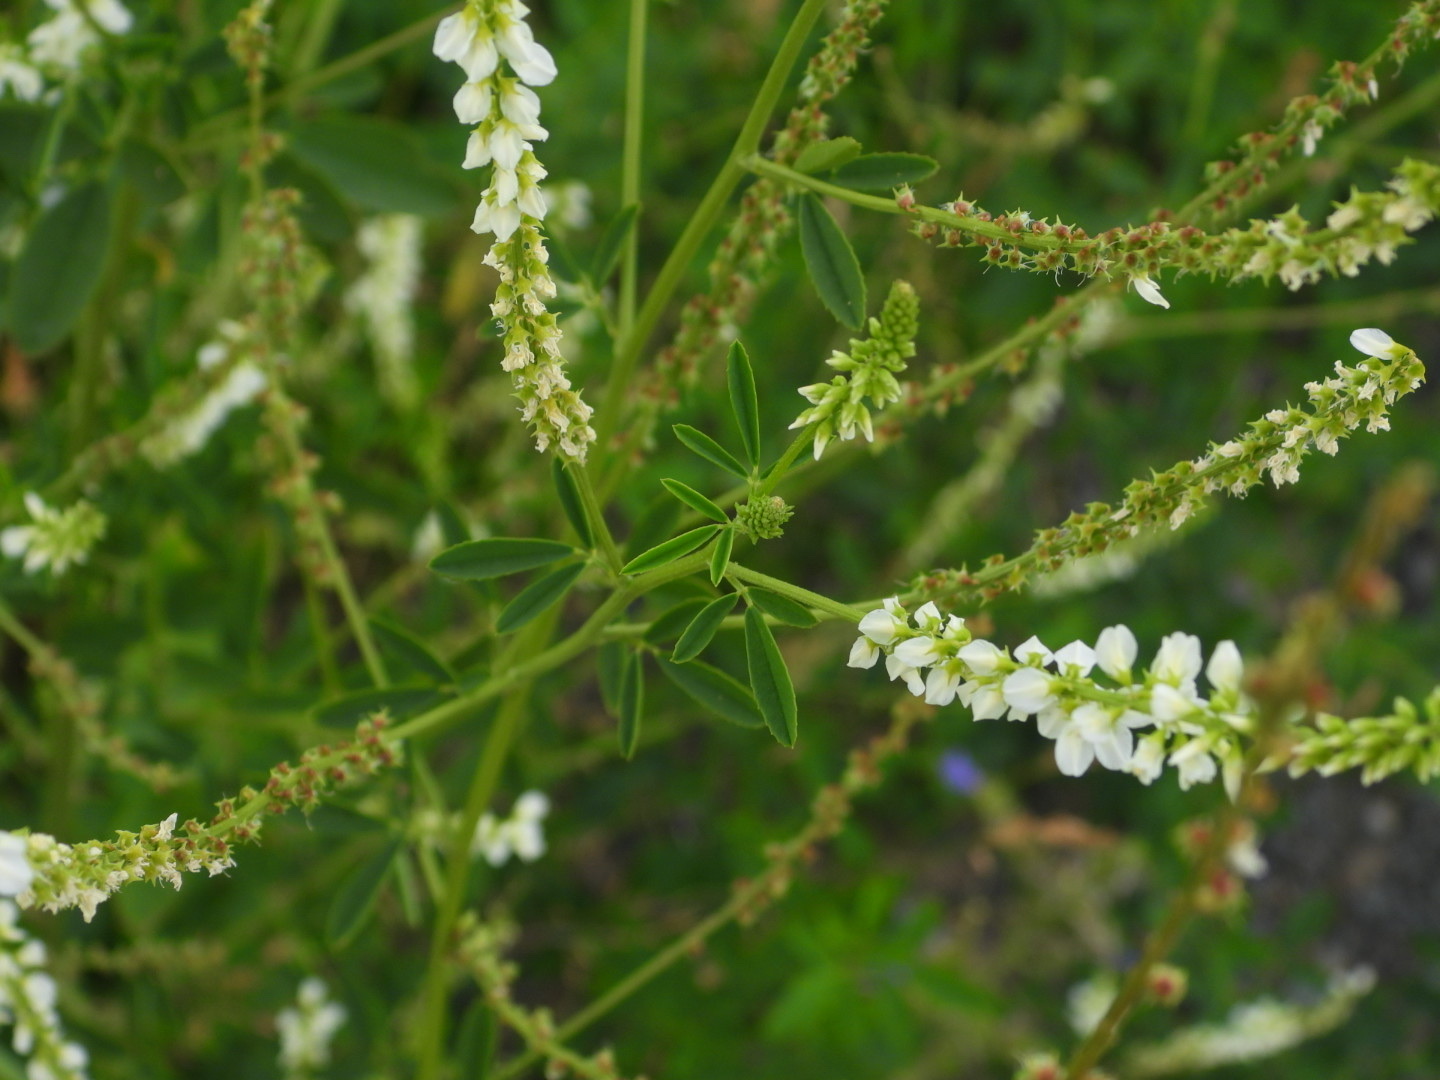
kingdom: Plantae
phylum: Tracheophyta
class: Magnoliopsida
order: Fabales
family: Fabaceae
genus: Melilotus
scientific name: Melilotus albus
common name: White melilot
